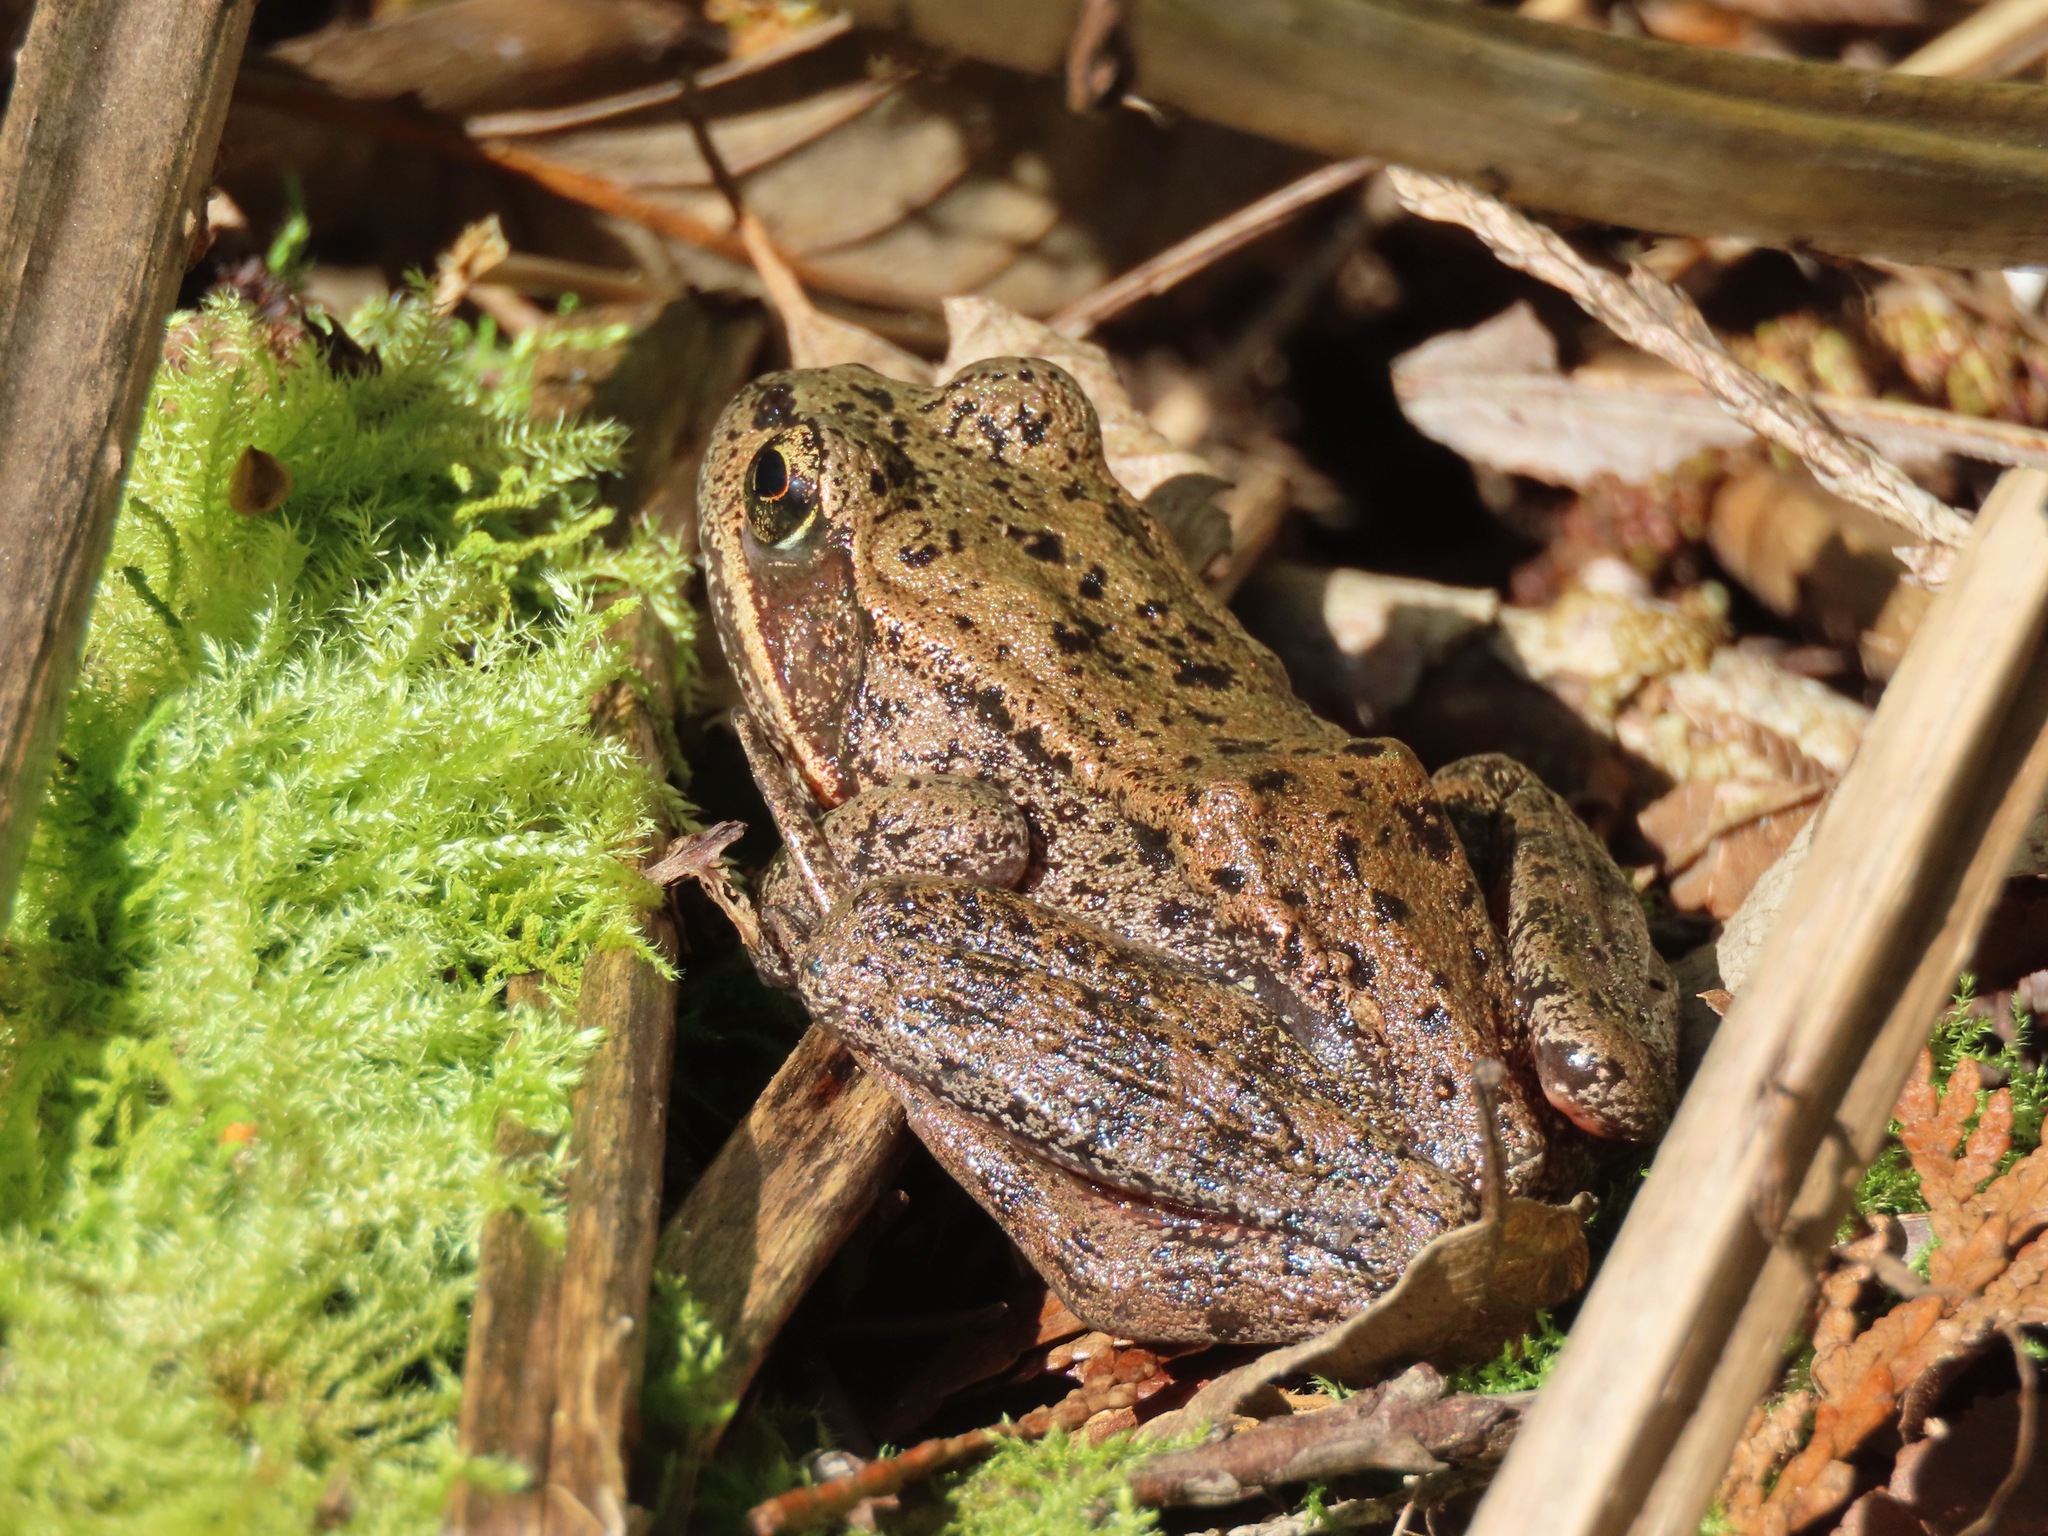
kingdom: Animalia
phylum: Chordata
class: Amphibia
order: Anura
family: Ranidae
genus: Rana
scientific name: Rana aurora
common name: Red-legged frog
